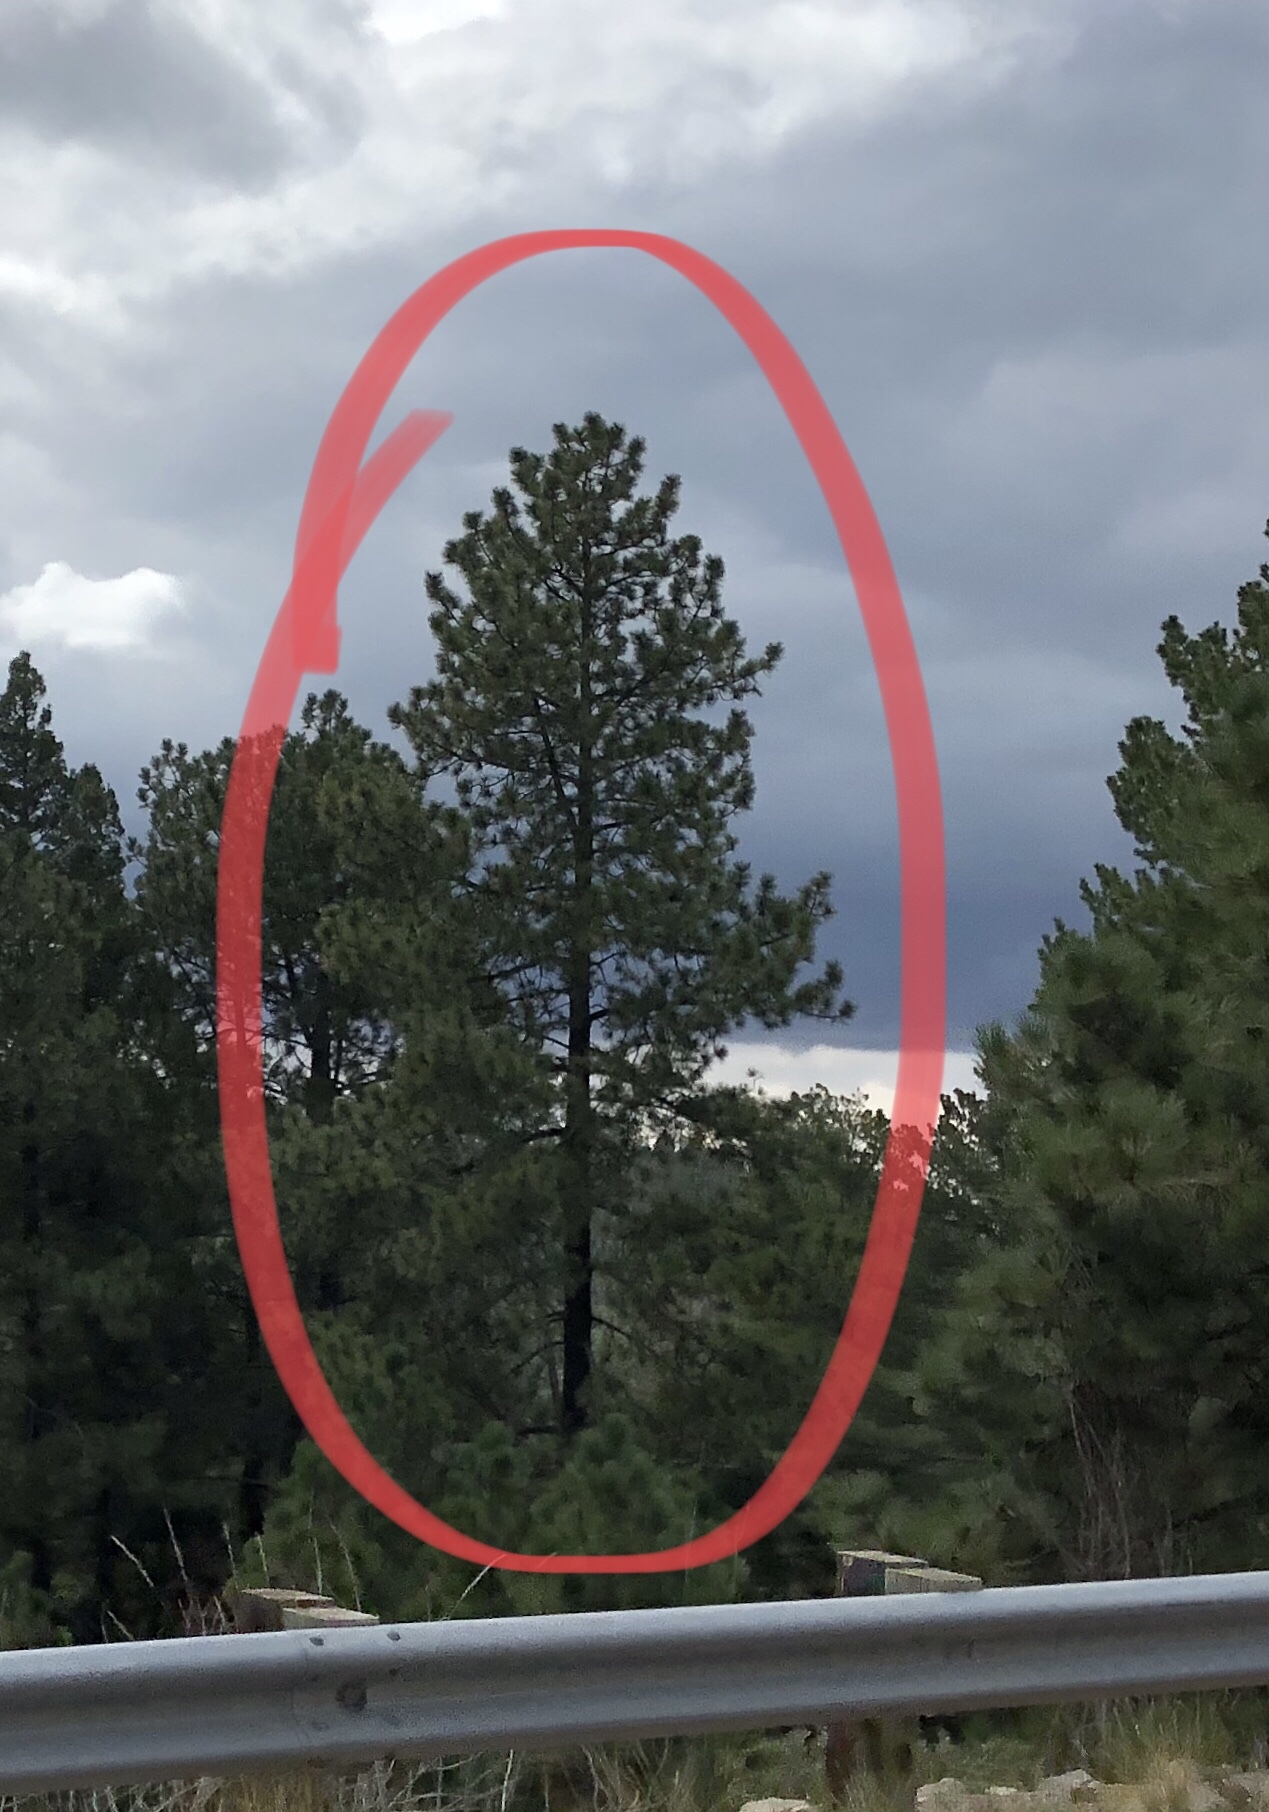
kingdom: Plantae
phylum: Tracheophyta
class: Pinopsida
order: Pinales
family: Pinaceae
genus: Pinus
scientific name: Pinus ponderosa
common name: Western yellow-pine
